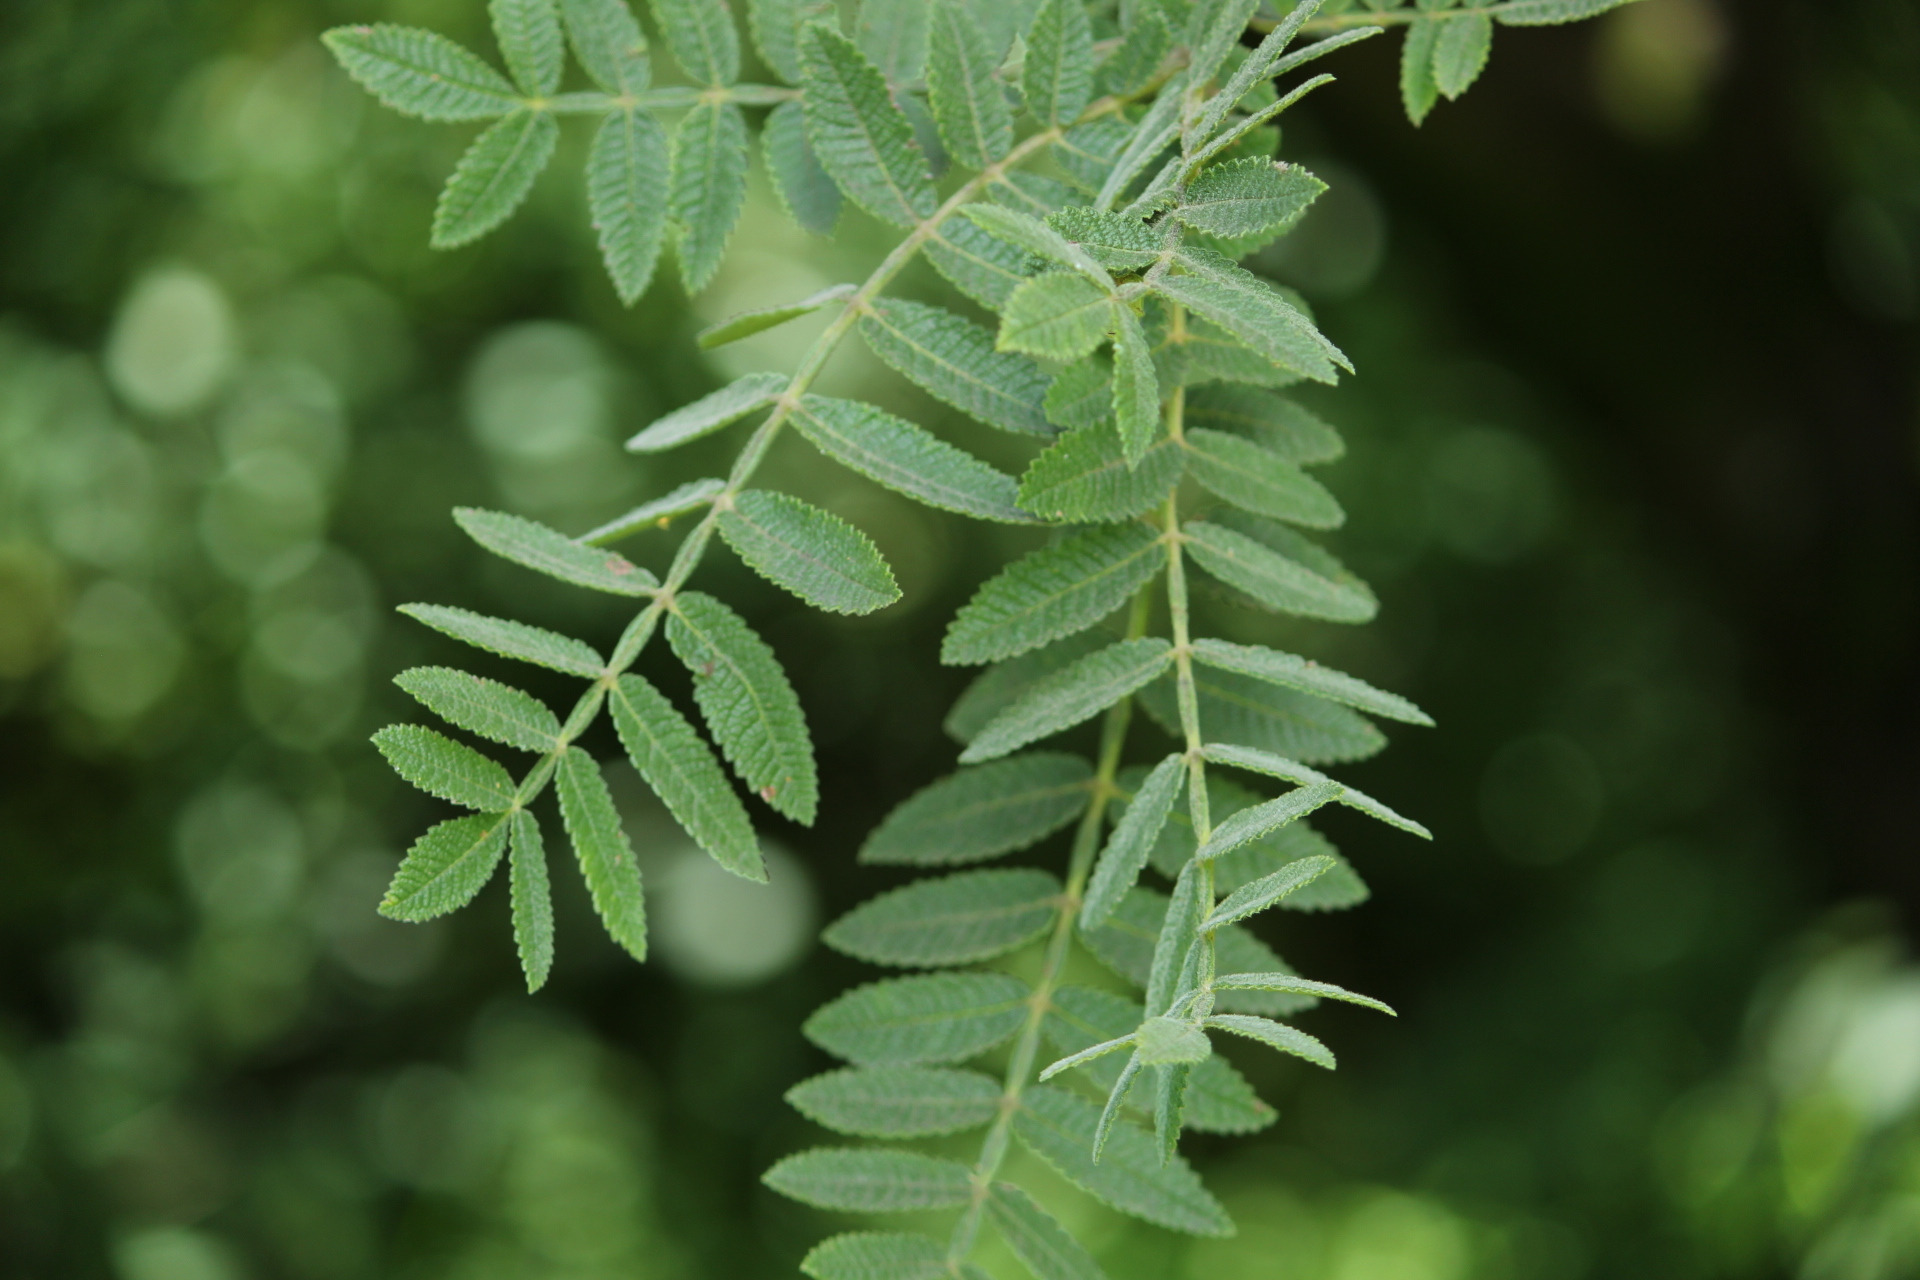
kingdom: Plantae
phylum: Tracheophyta
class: Magnoliopsida
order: Sapindales
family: Burseraceae
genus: Bursera
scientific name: Bursera cuneata
